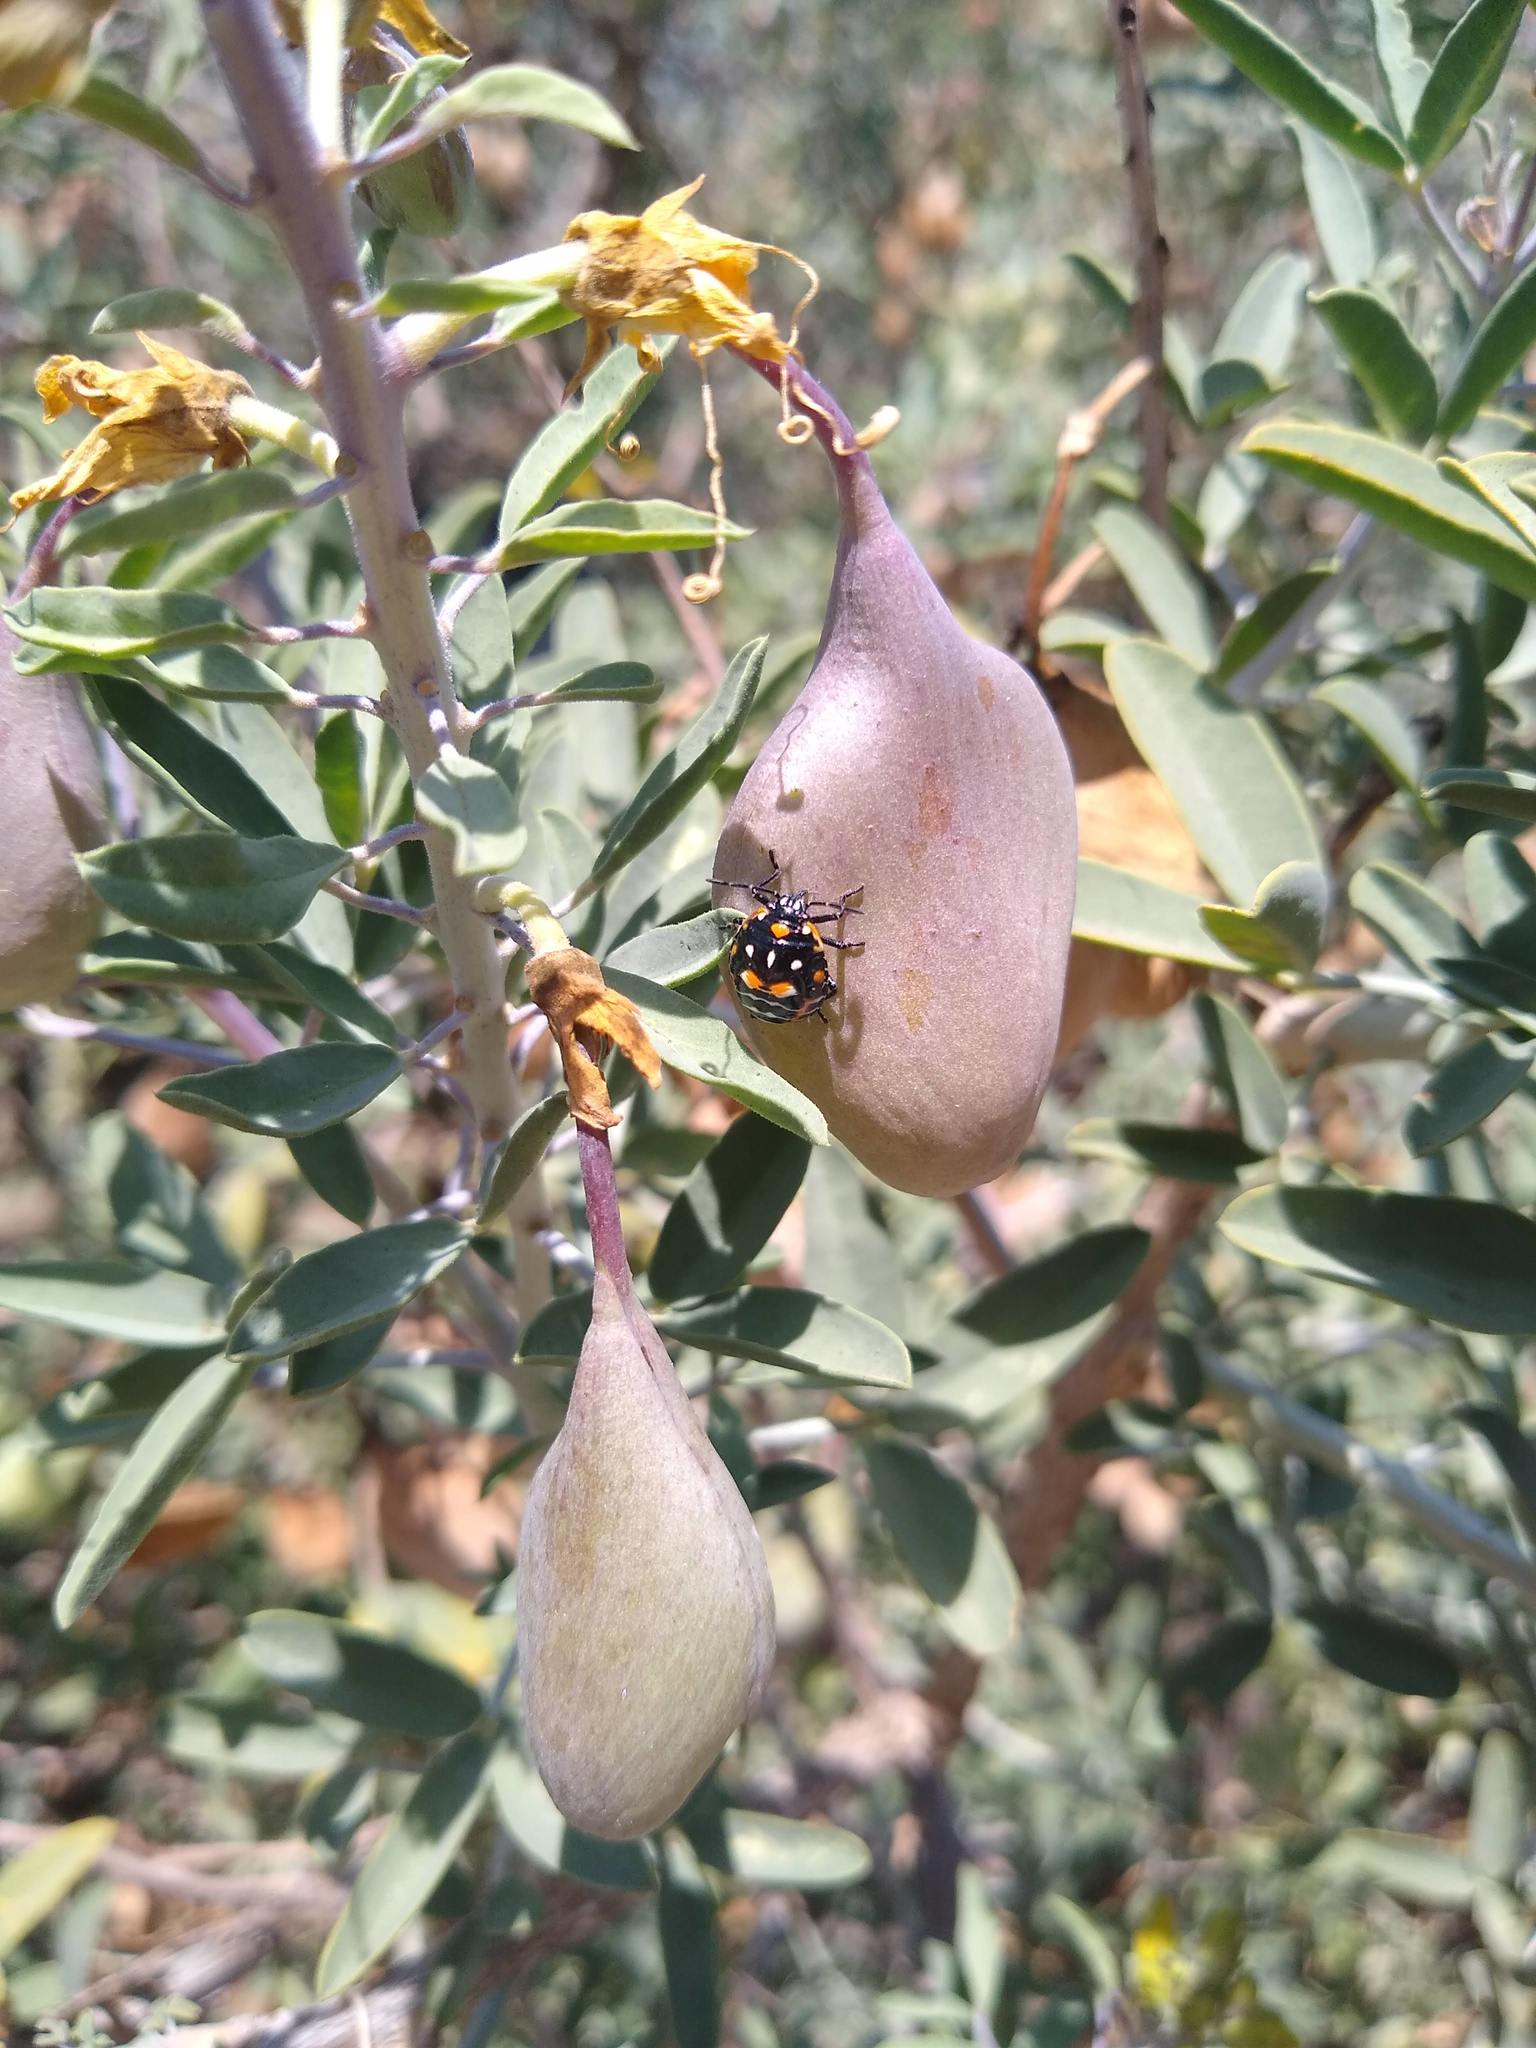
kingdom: Animalia
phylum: Arthropoda
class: Insecta
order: Hemiptera
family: Pentatomidae
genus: Murgantia
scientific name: Murgantia histrionica
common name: Harlequin bug
